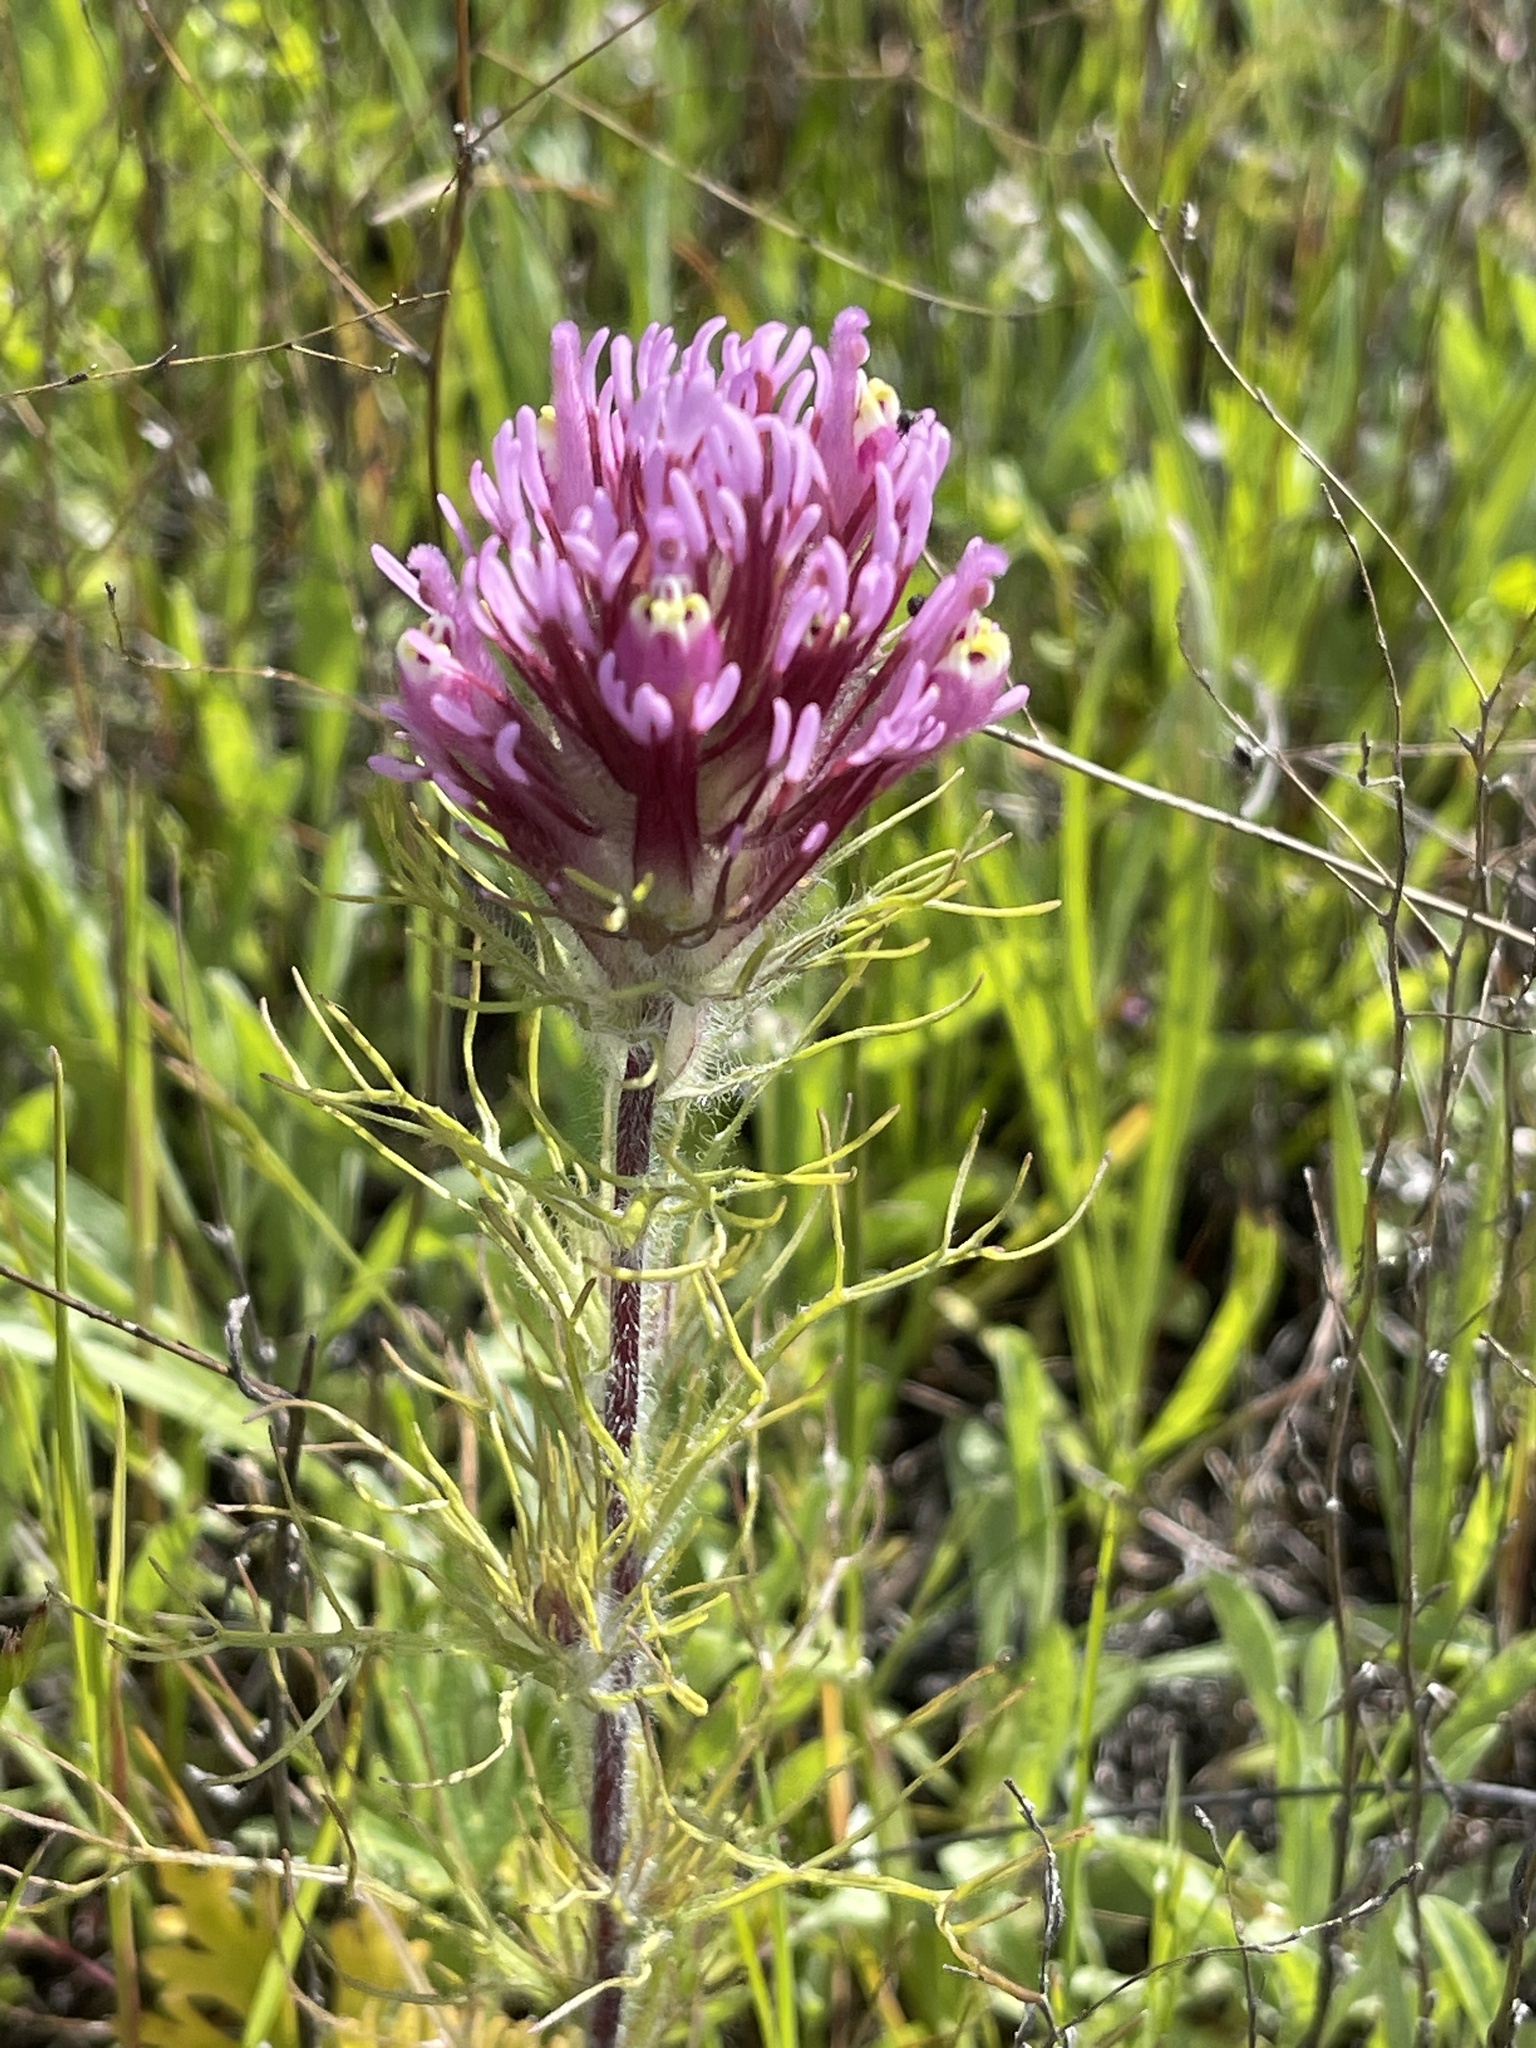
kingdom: Plantae
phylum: Tracheophyta
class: Magnoliopsida
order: Lamiales
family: Orobanchaceae
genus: Castilleja
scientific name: Castilleja exserta
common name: Purple owl-clover
